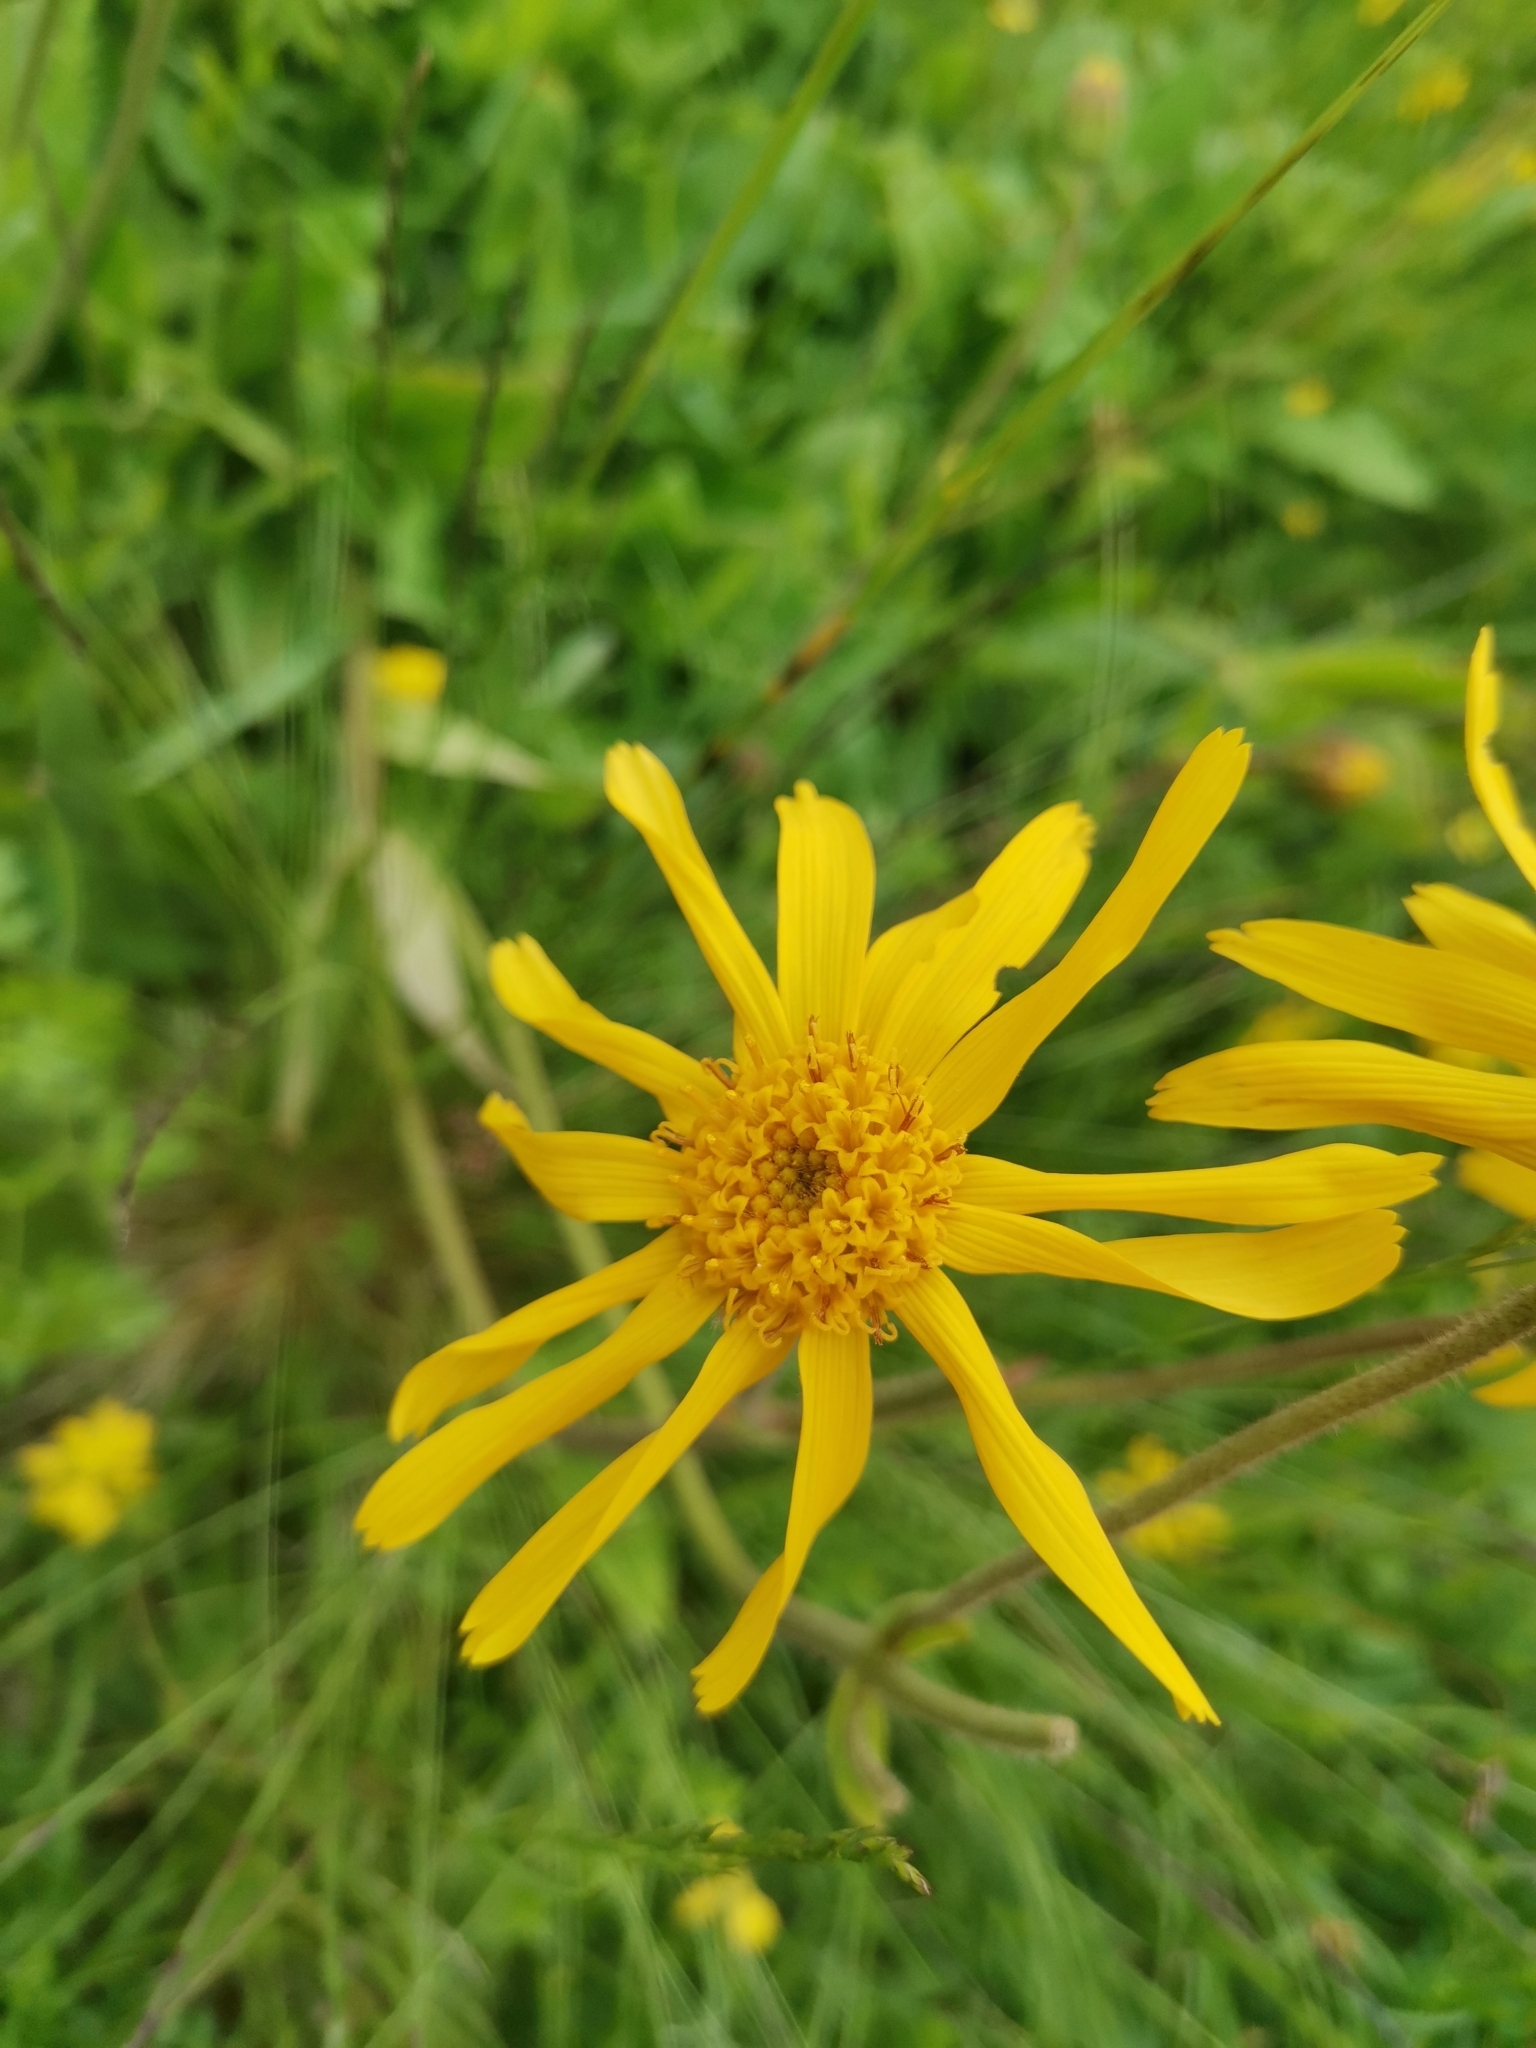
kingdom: Plantae
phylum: Tracheophyta
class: Magnoliopsida
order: Asterales
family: Asteraceae
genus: Arnica
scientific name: Arnica montana
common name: Leopard's bane
